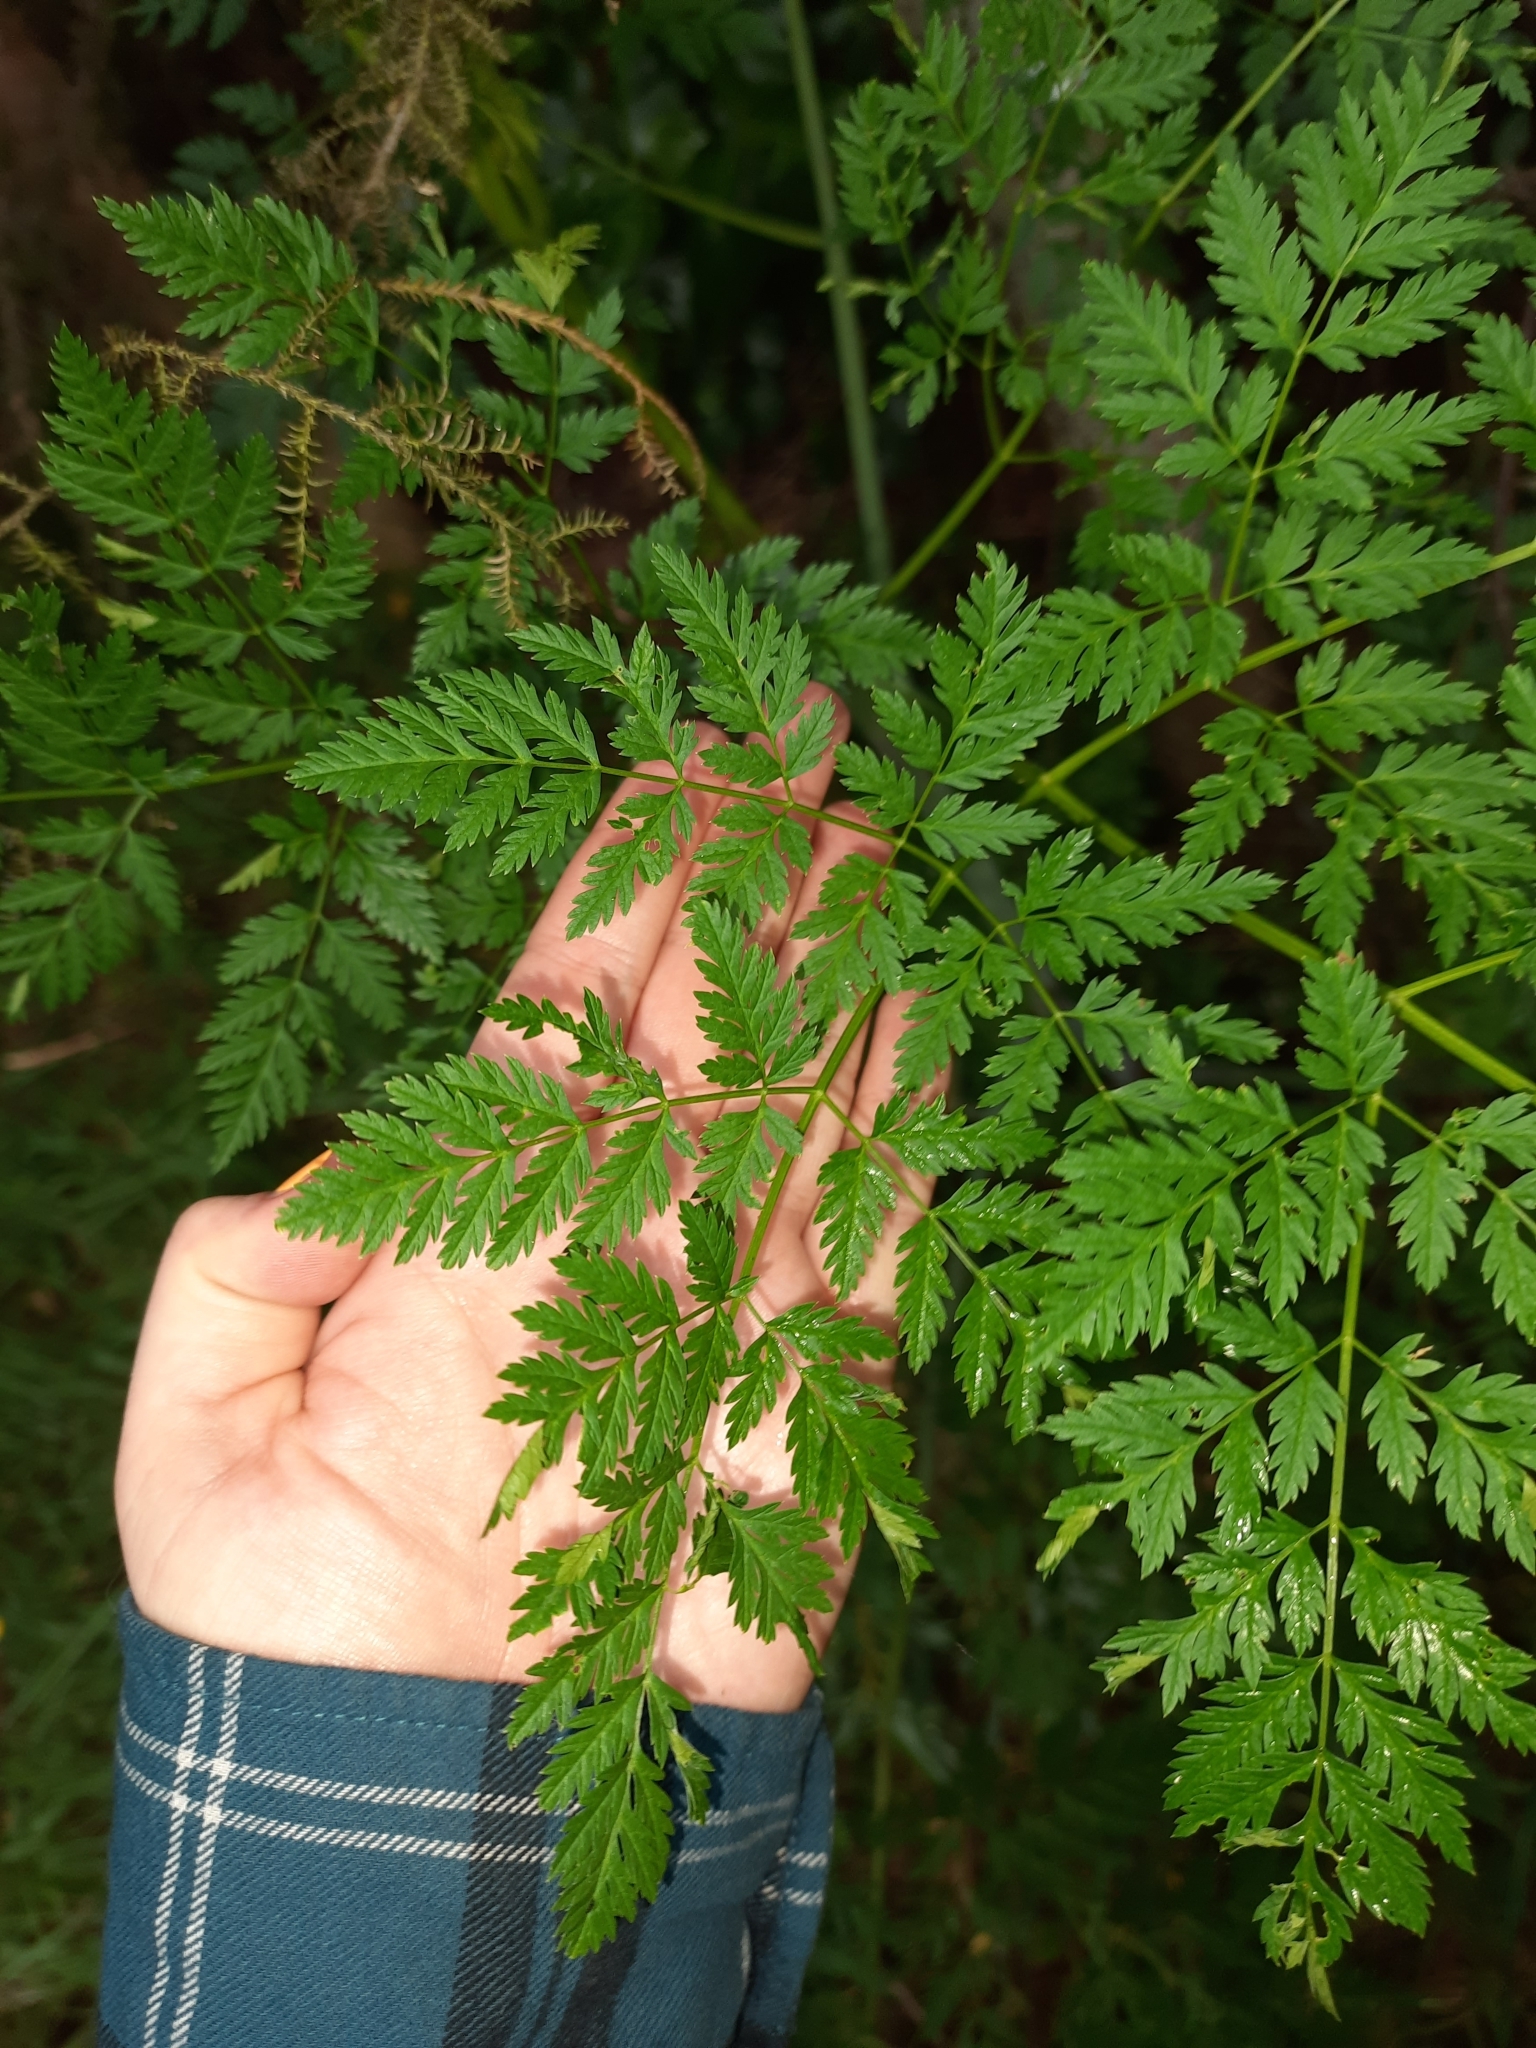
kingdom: Plantae
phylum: Tracheophyta
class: Magnoliopsida
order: Apiales
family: Apiaceae
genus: Conium
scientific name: Conium maculatum
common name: Hemlock
